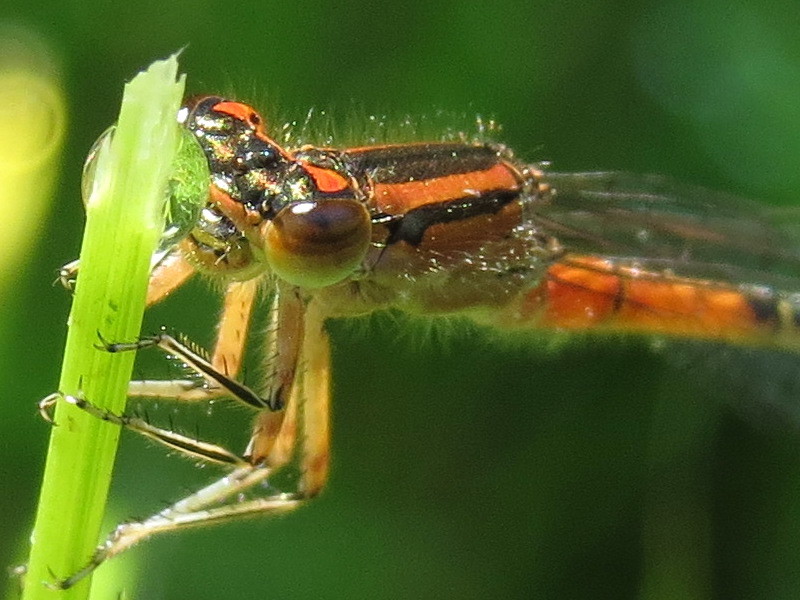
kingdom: Animalia
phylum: Arthropoda
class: Insecta
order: Odonata
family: Coenagrionidae
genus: Ischnura
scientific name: Ischnura verticalis
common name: Eastern forktail
